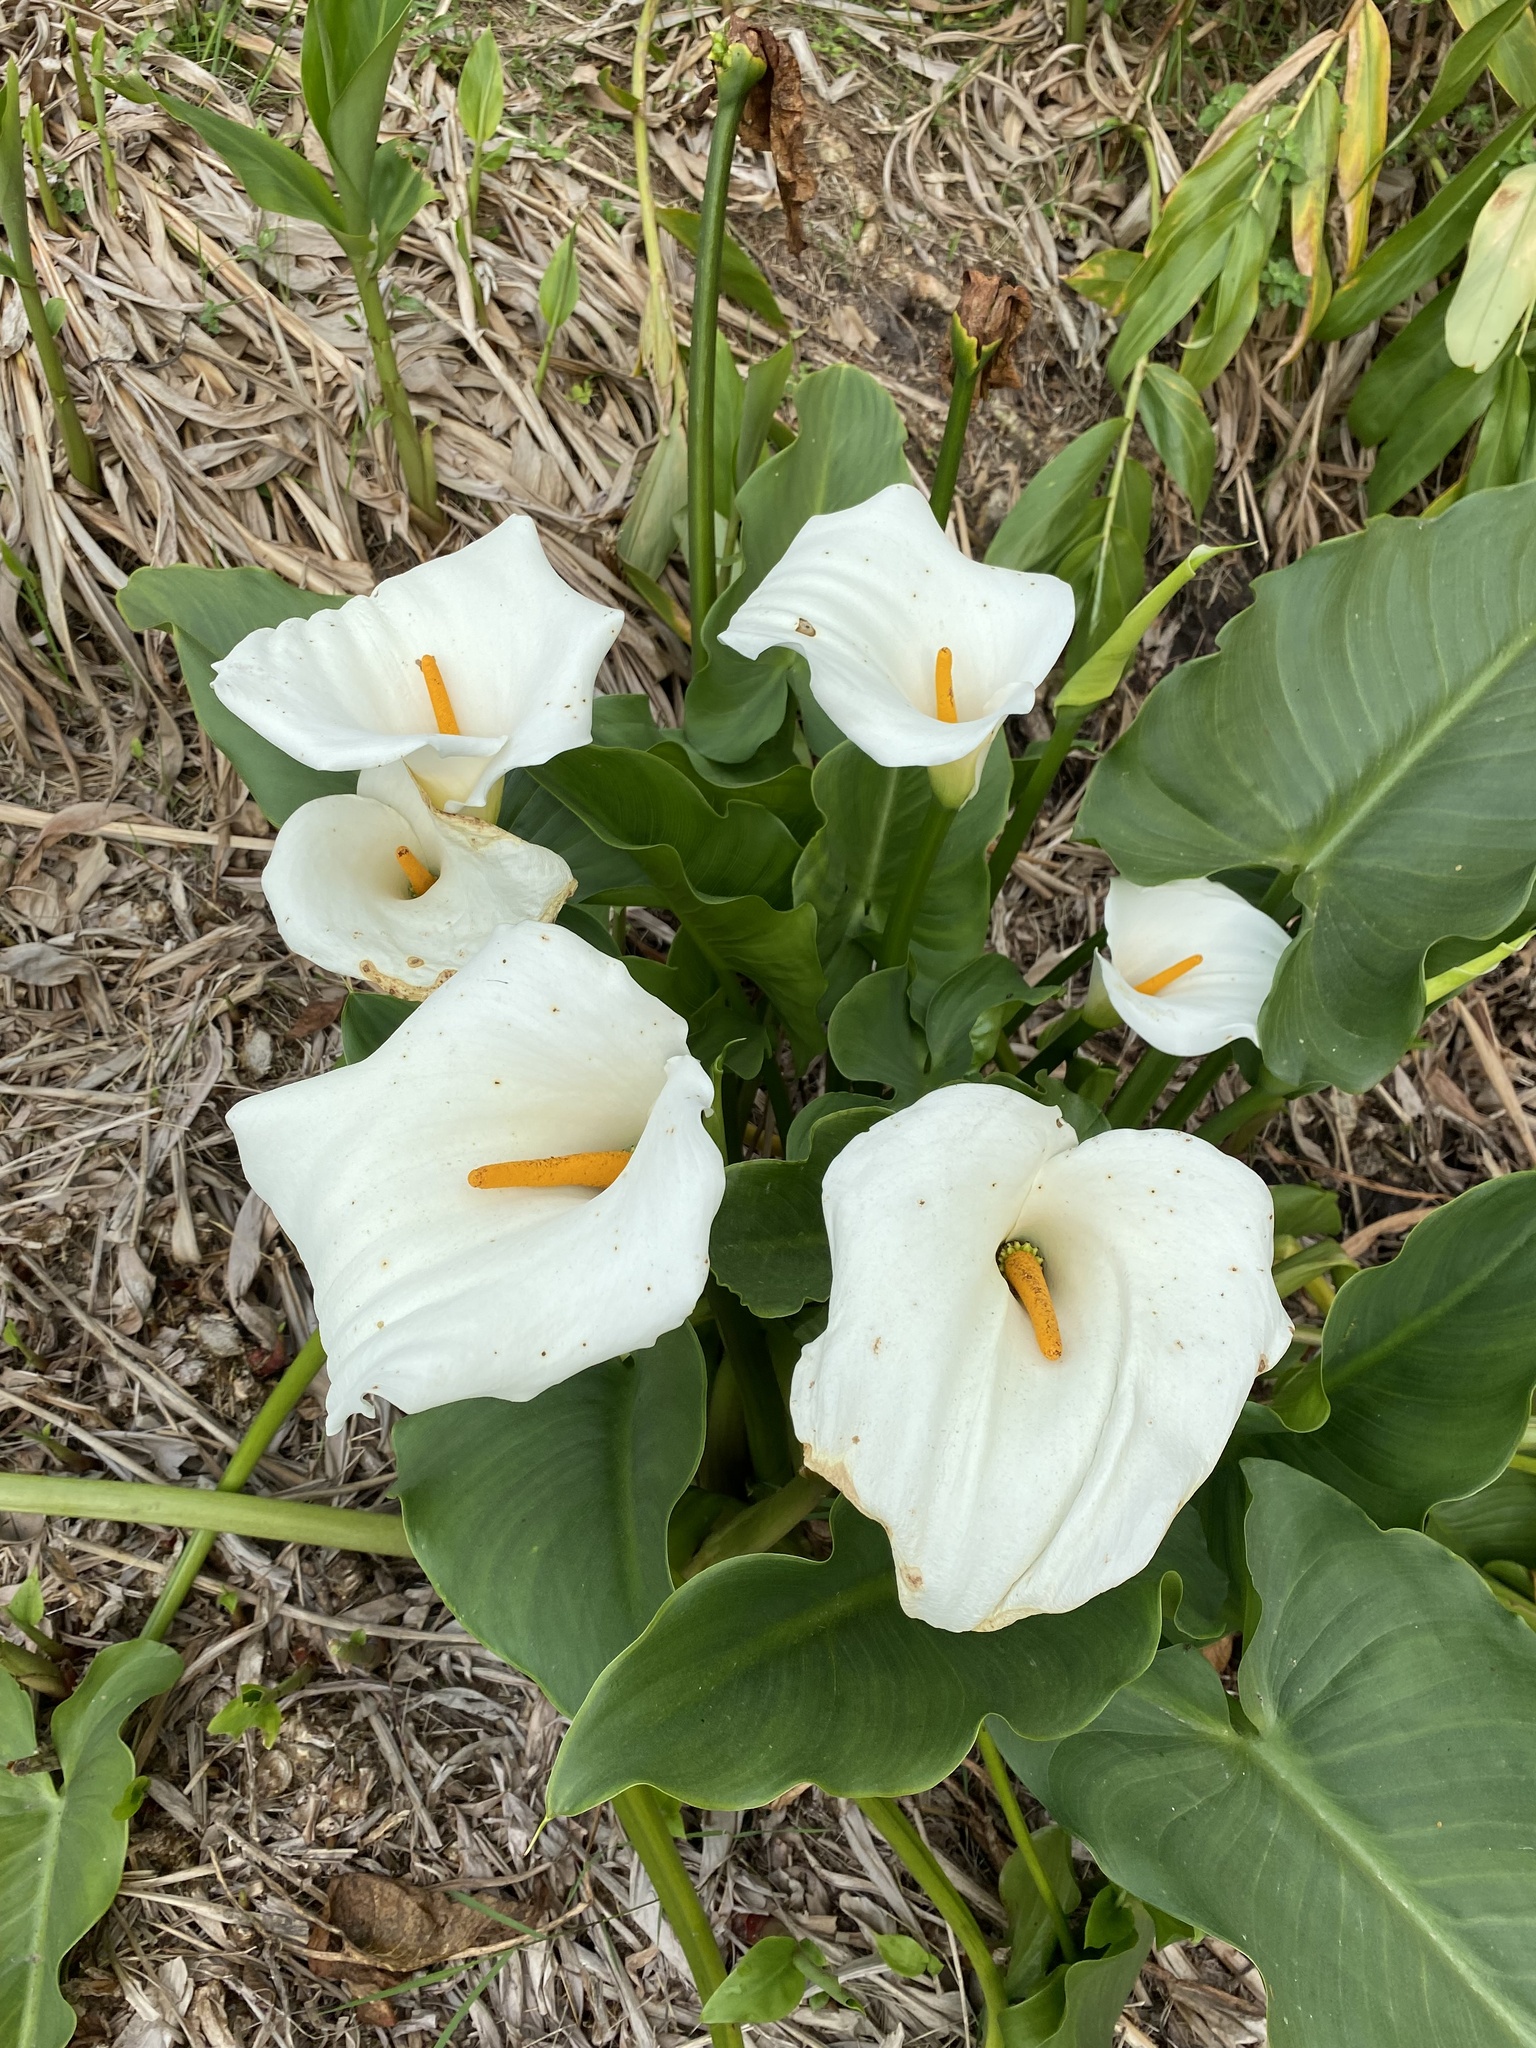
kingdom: Plantae
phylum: Tracheophyta
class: Liliopsida
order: Alismatales
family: Araceae
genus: Zantedeschia
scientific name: Zantedeschia aethiopica
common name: Altar-lily
